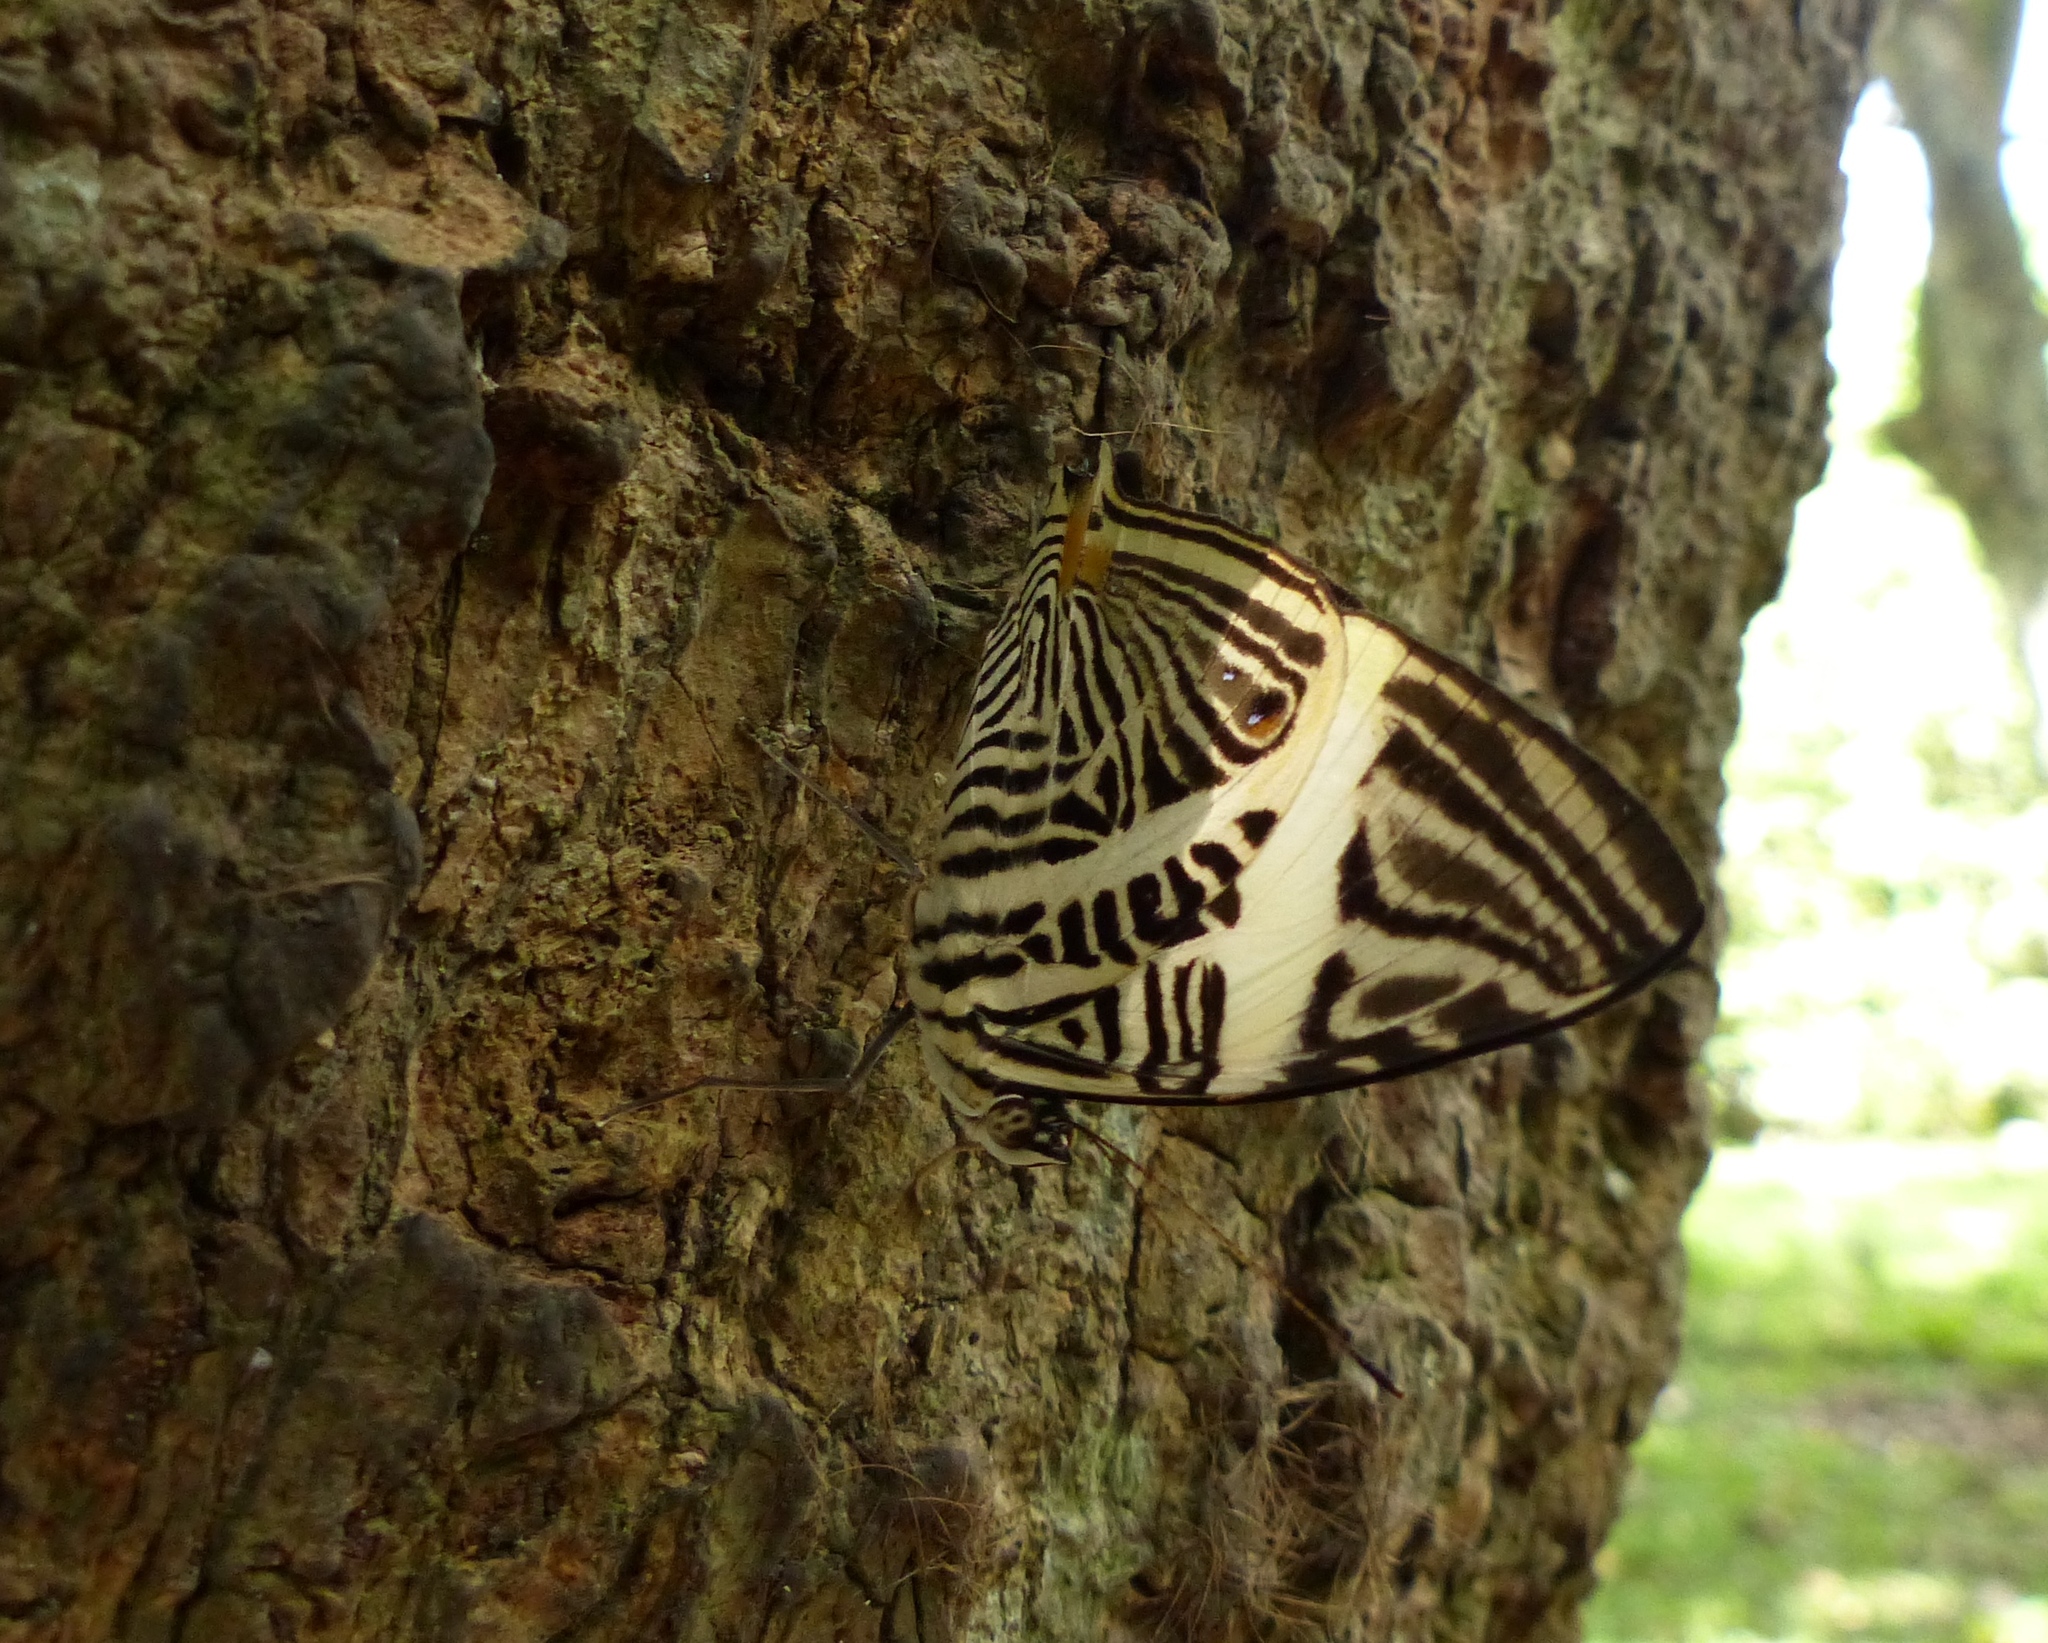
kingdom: Animalia
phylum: Arthropoda
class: Insecta
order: Lepidoptera
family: Nymphalidae
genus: Colobura
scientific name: Colobura dirce
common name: Dirce beauty
